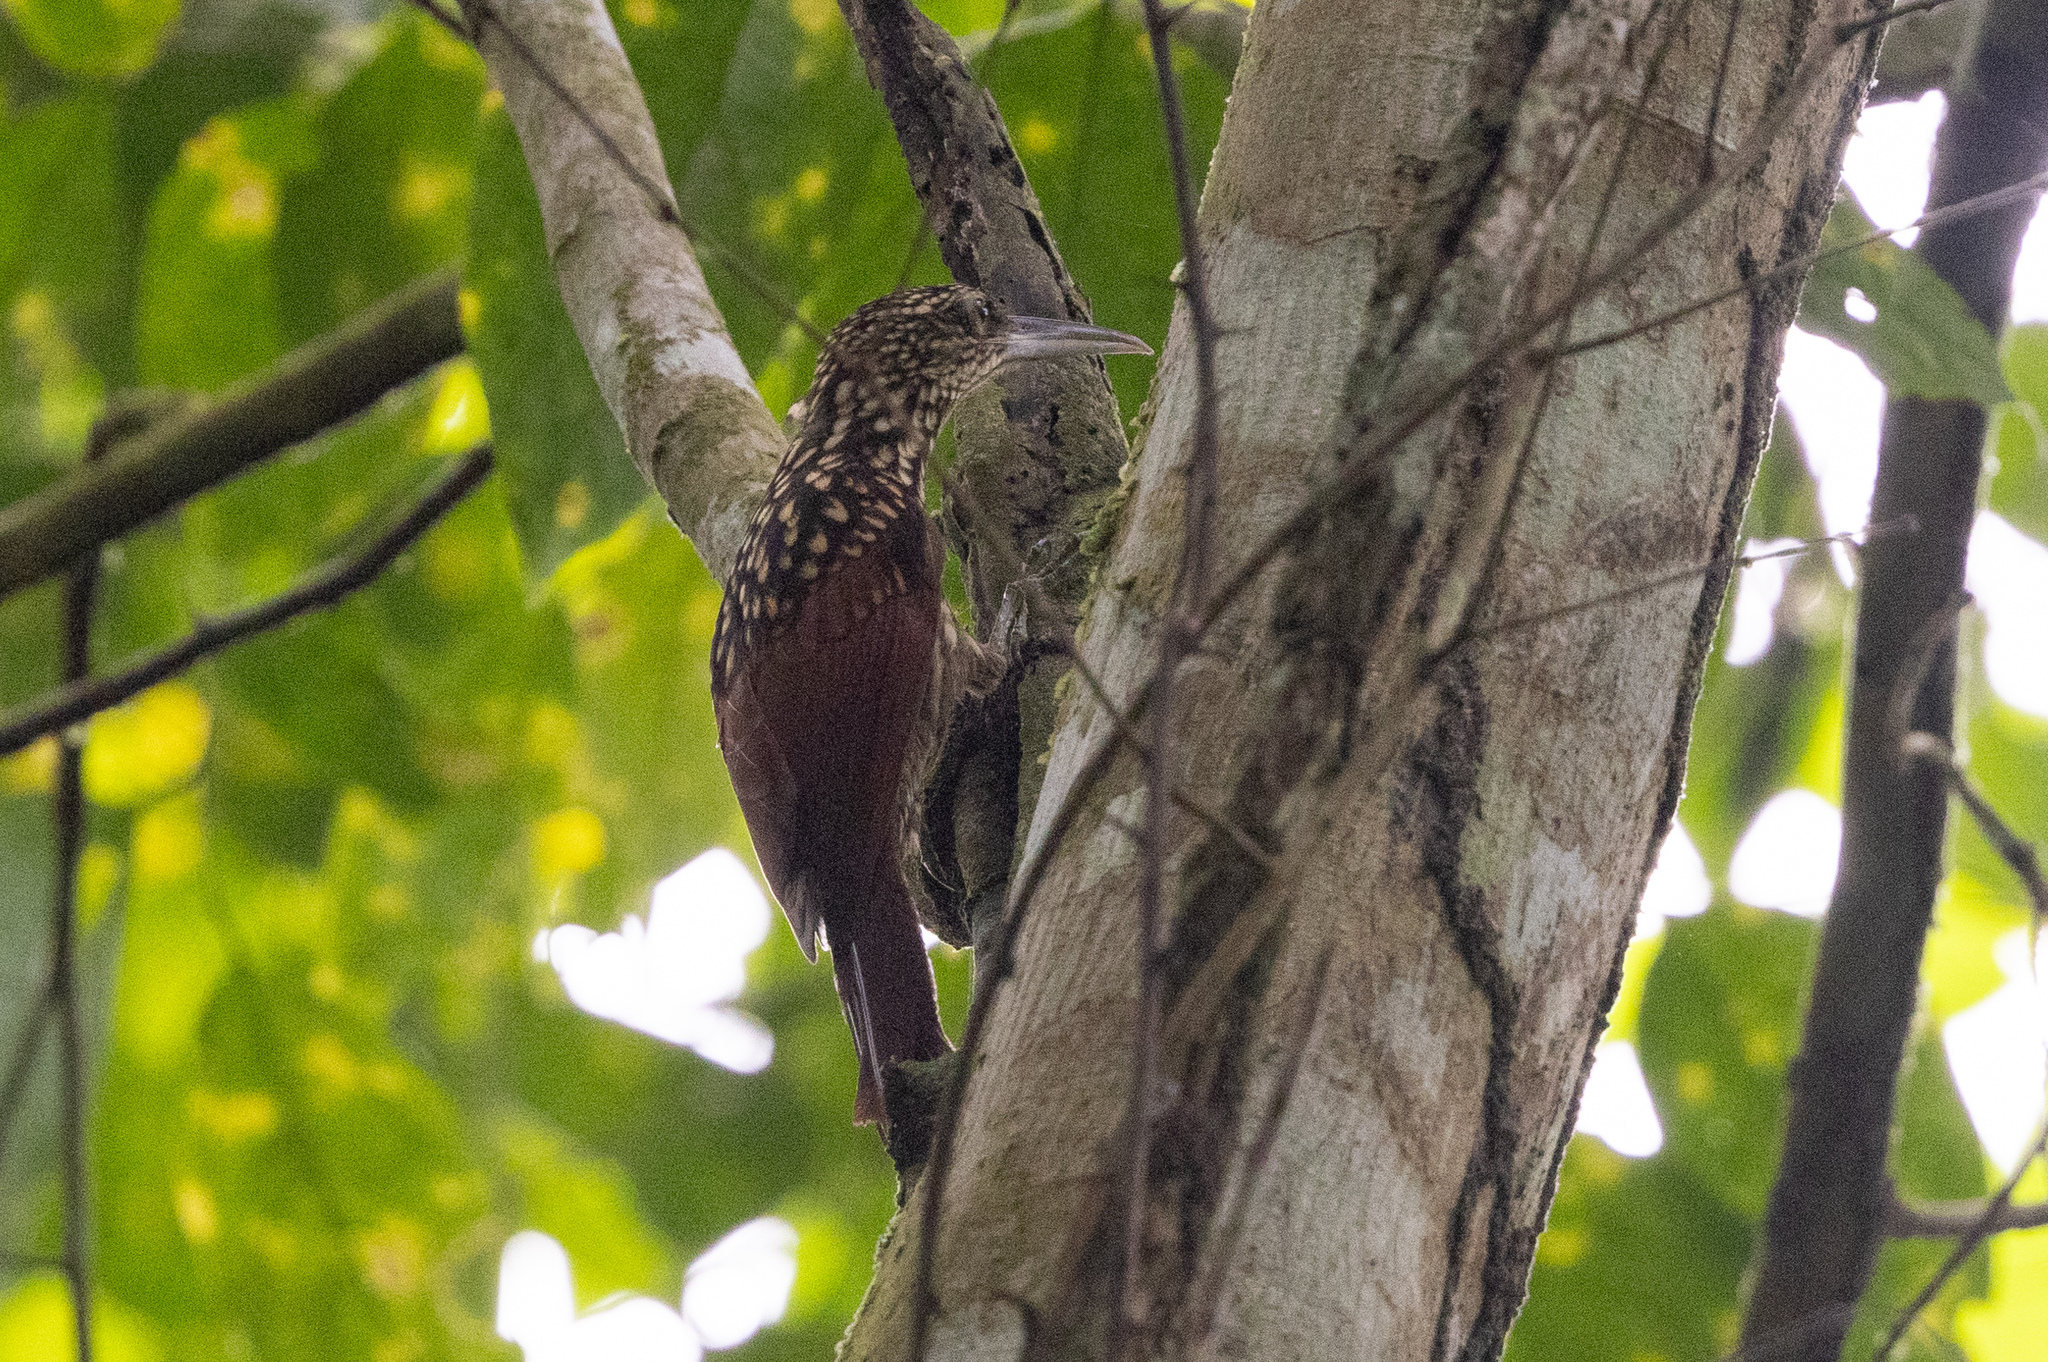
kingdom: Animalia
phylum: Chordata
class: Aves
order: Passeriformes
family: Furnariidae
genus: Xiphorhynchus
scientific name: Xiphorhynchus lachrymosus
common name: Black-striped woodcreeper
